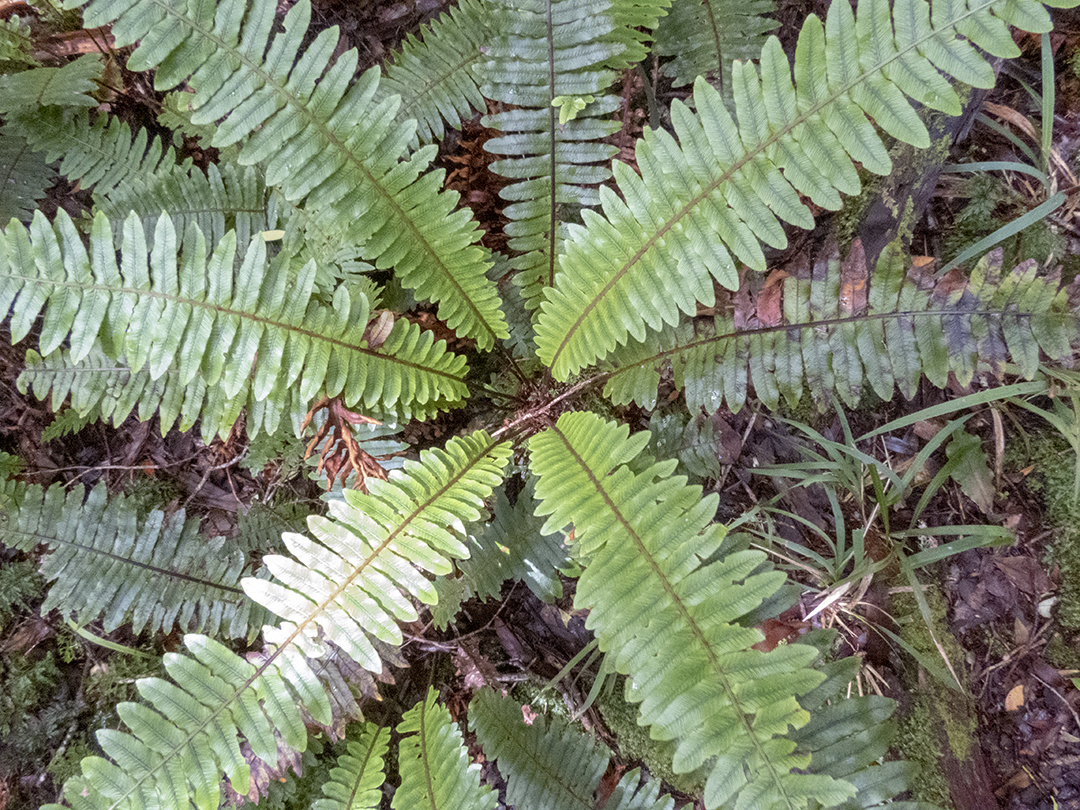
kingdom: Plantae
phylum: Tracheophyta
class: Polypodiopsida
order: Polypodiales
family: Blechnaceae
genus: Lomaria
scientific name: Lomaria discolor
